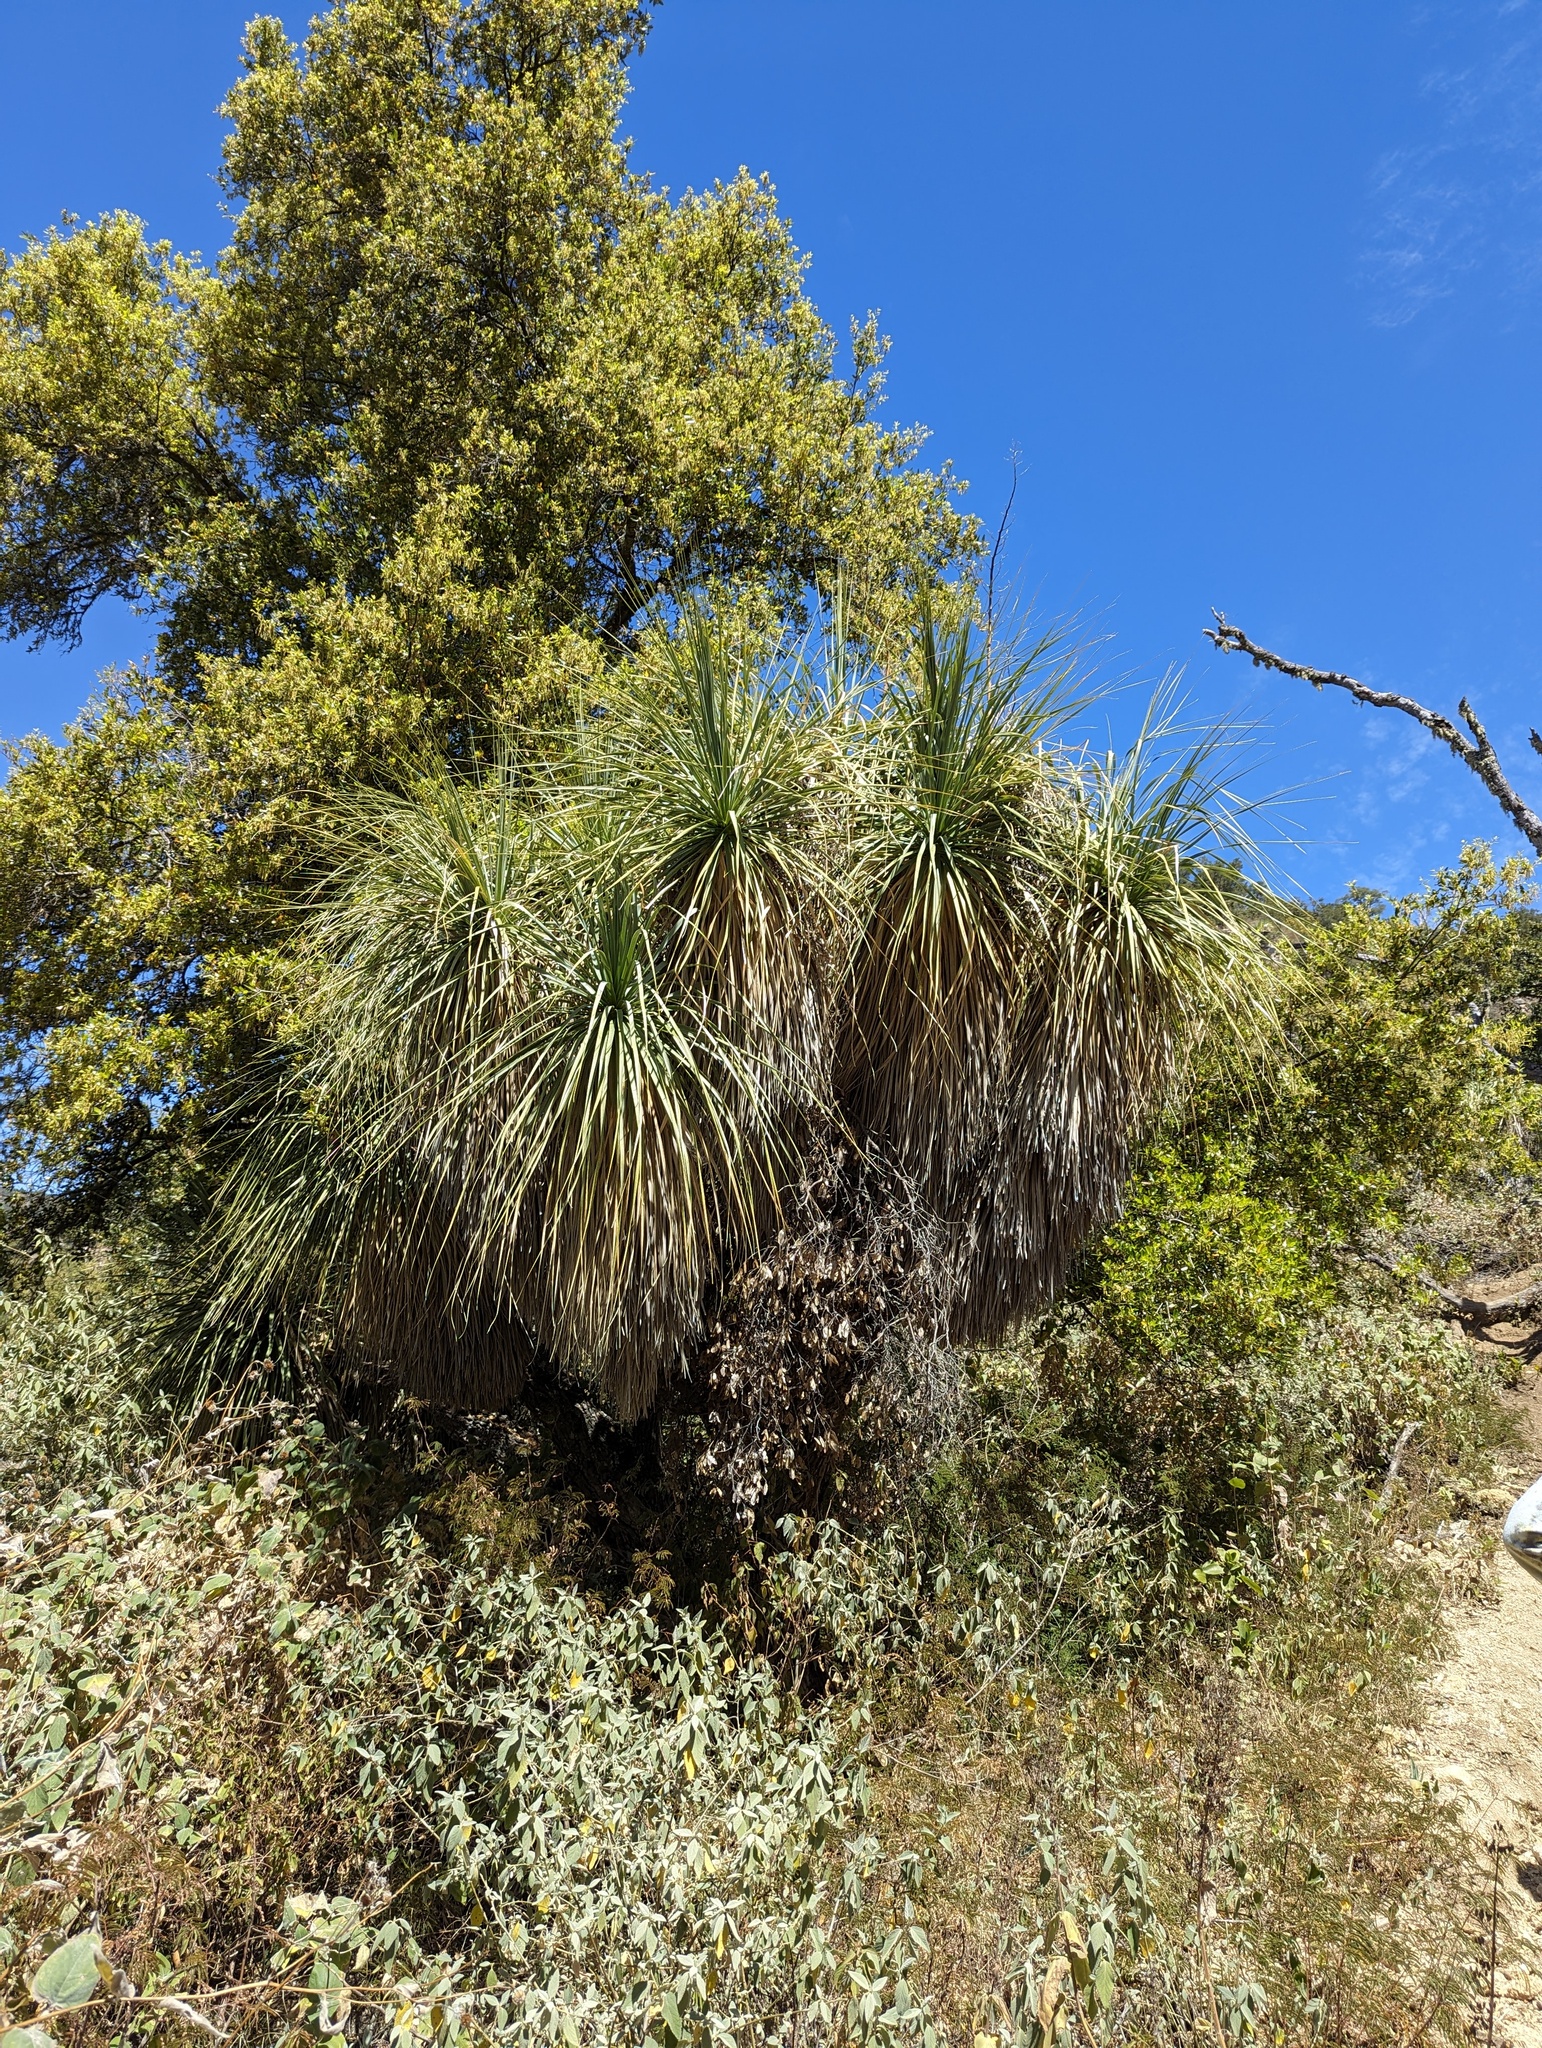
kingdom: Plantae
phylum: Tracheophyta
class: Liliopsida
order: Asparagales
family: Asparagaceae
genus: Nolina
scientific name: Nolina beldingii
